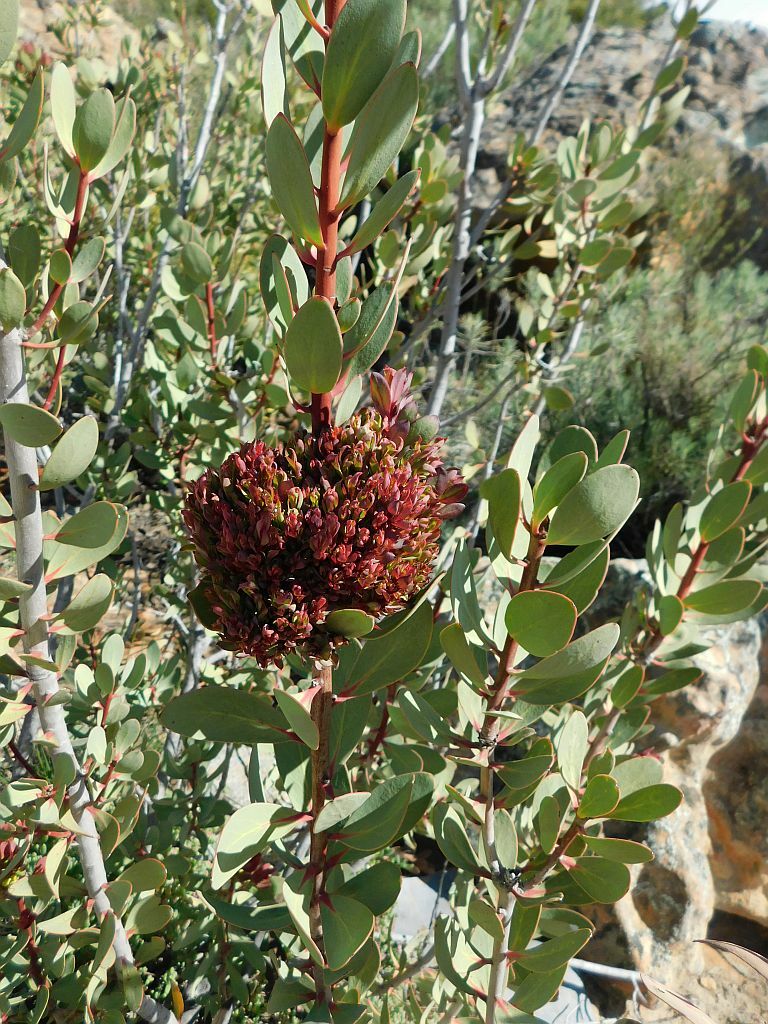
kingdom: Bacteria
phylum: Firmicutes
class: Bacilli
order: Acholeplasmatales
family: Acholeplasmataceae
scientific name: Acholeplasmataceae
